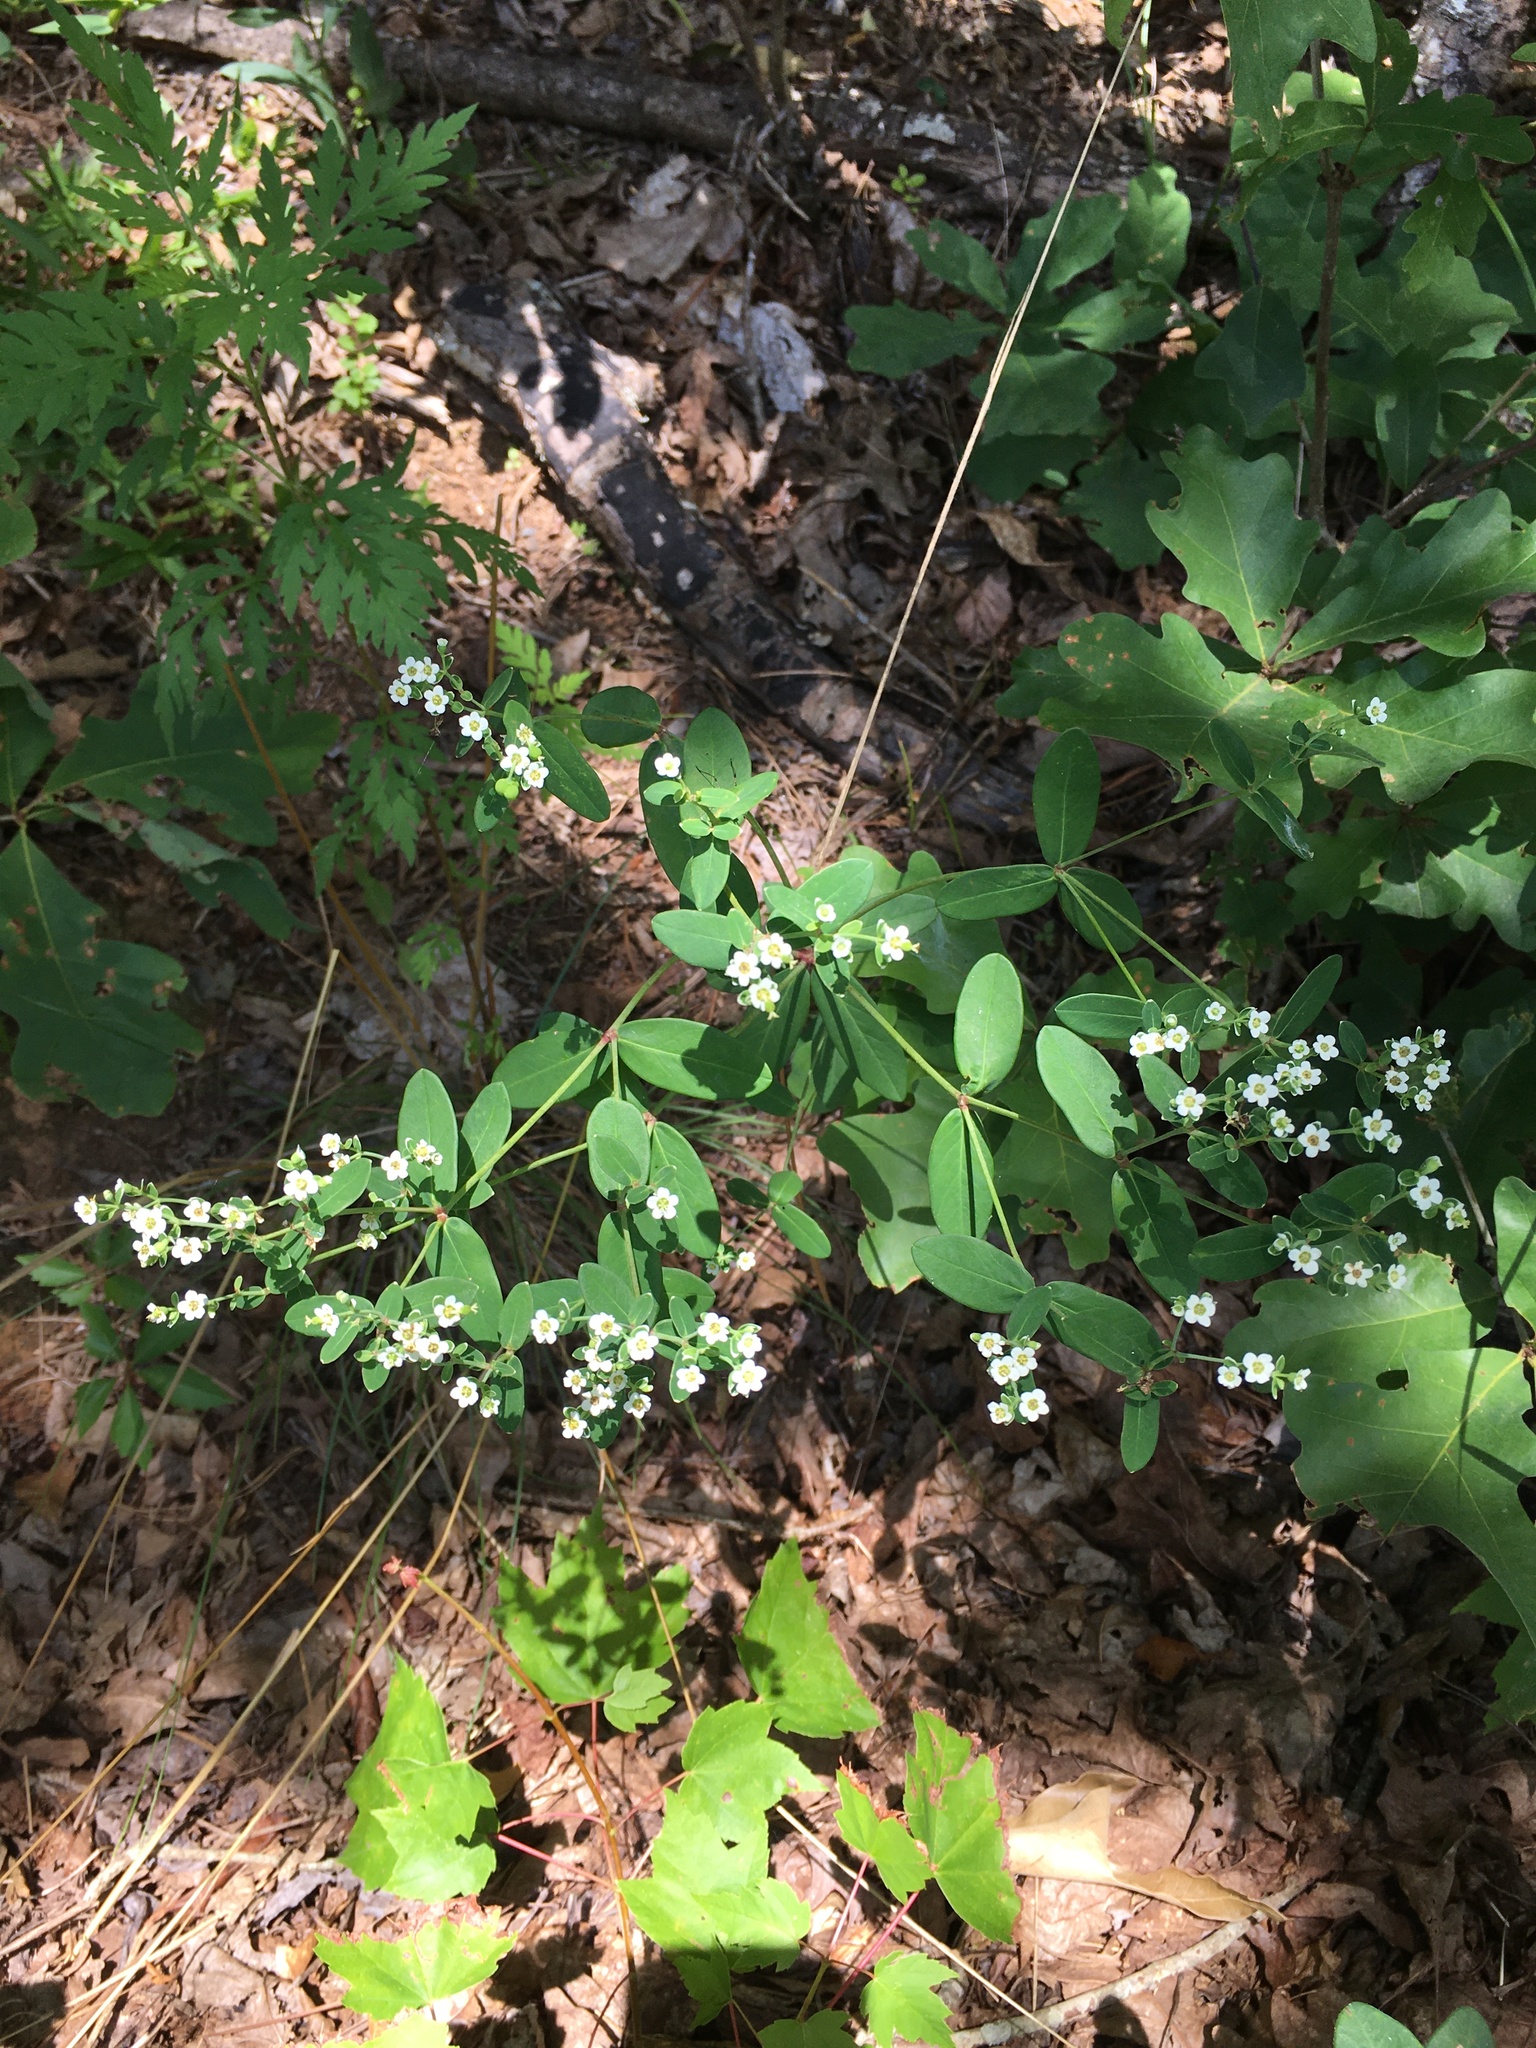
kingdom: Plantae
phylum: Tracheophyta
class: Magnoliopsida
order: Malpighiales
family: Euphorbiaceae
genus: Euphorbia
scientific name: Euphorbia corollata
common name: Flowering spurge
